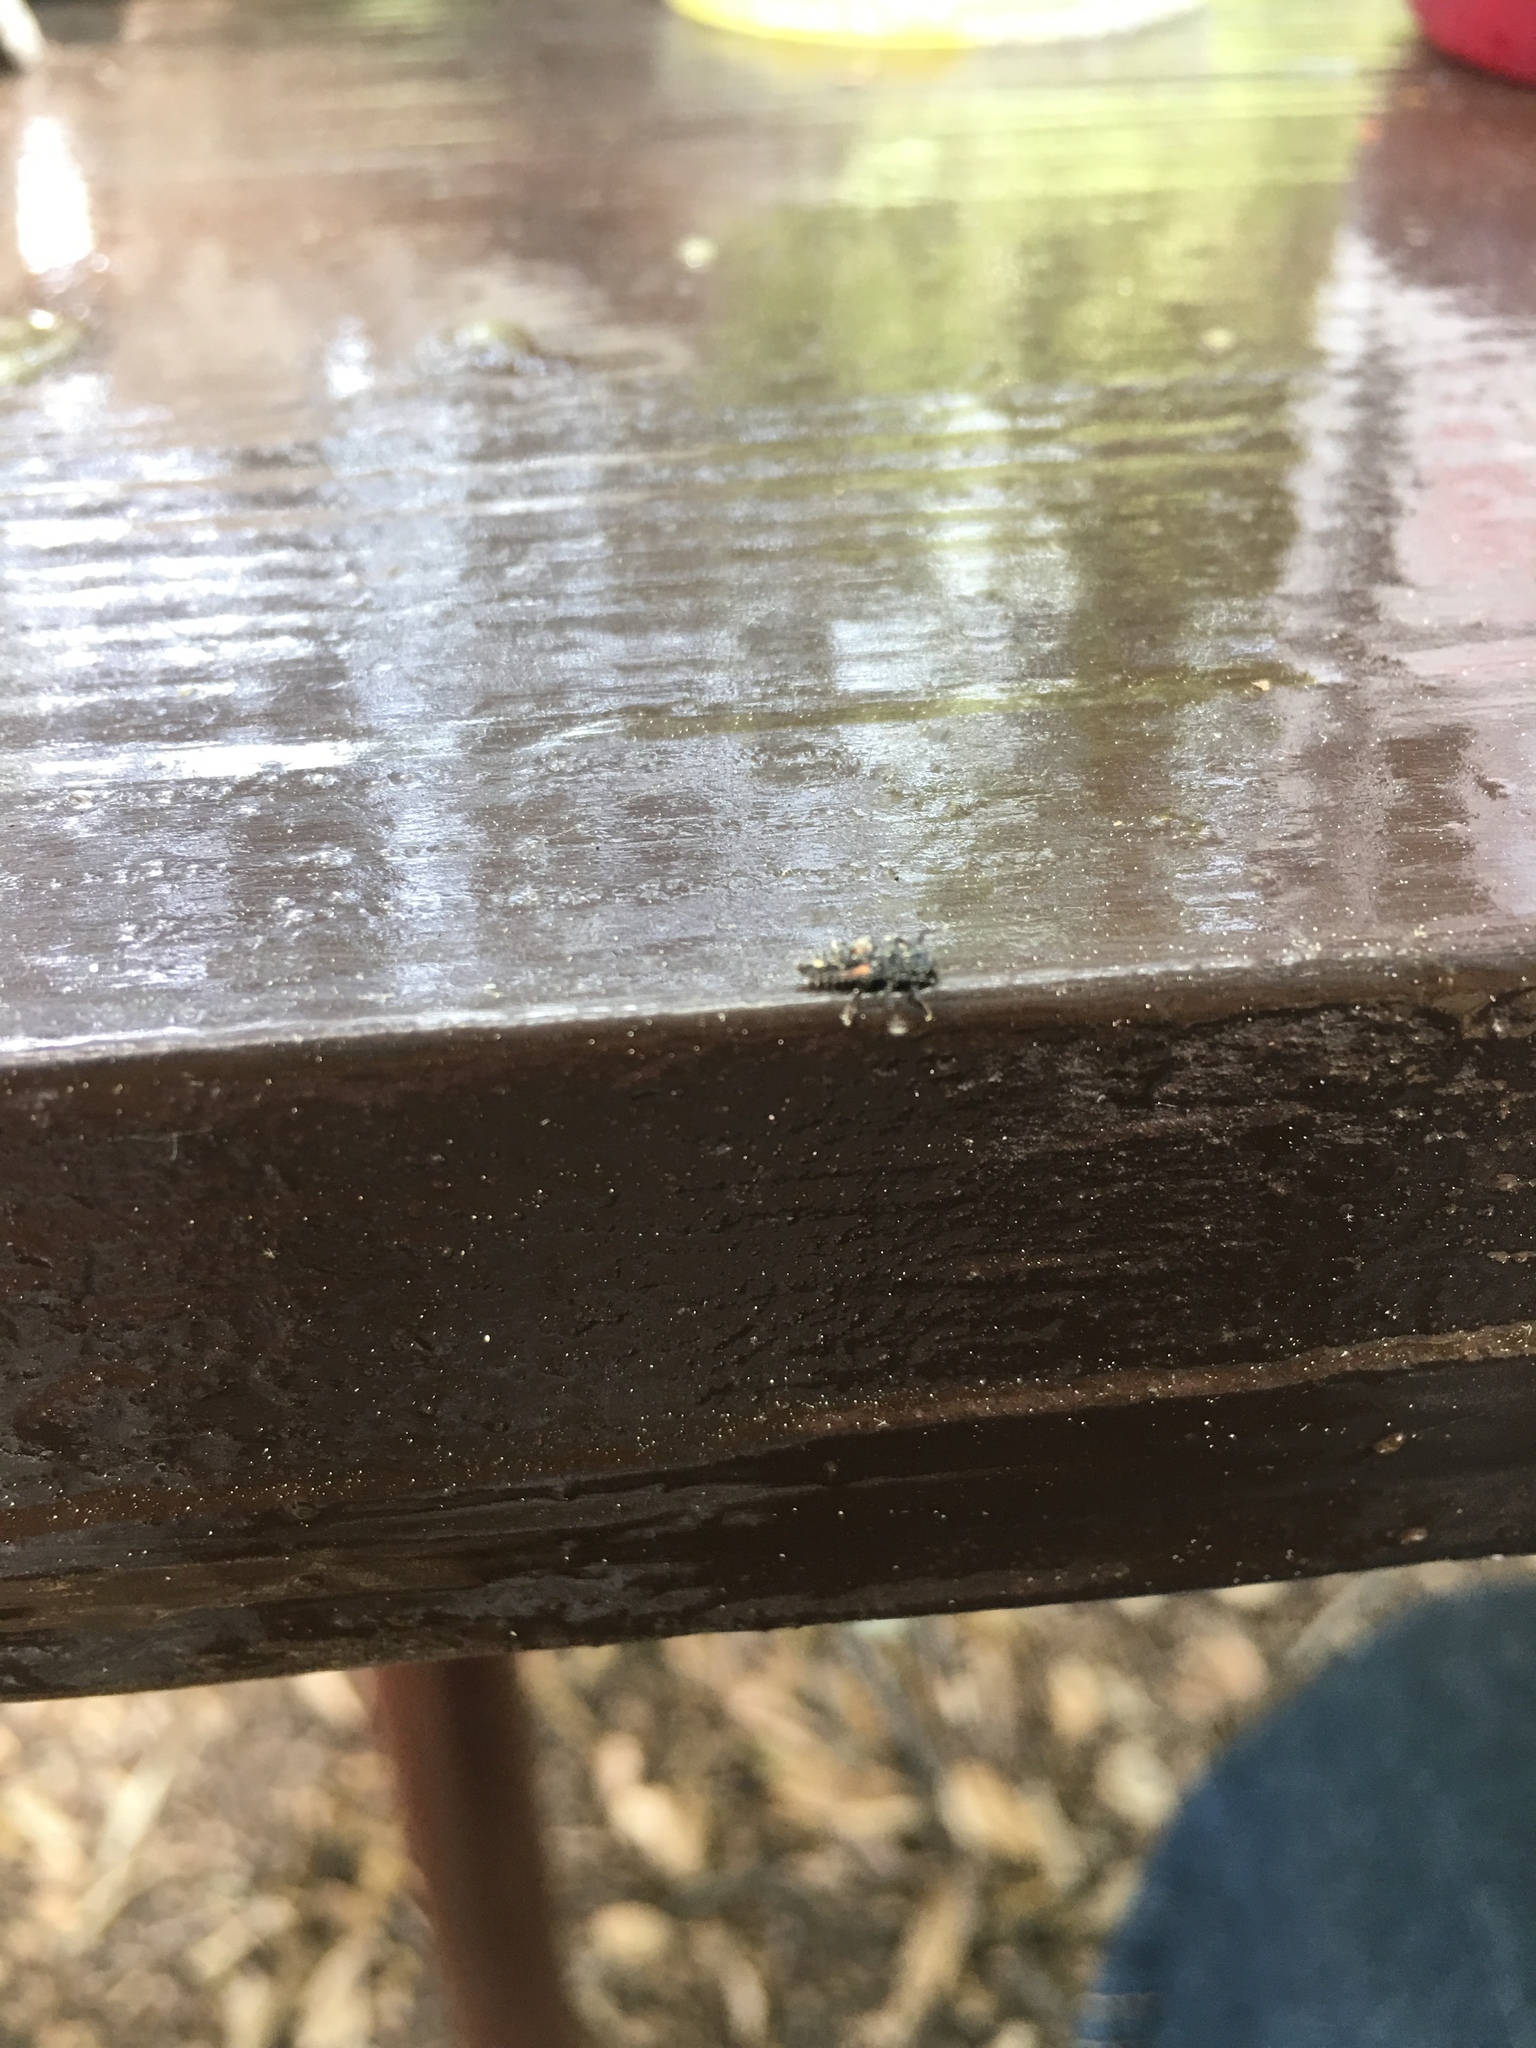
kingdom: Animalia
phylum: Arthropoda
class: Insecta
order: Coleoptera
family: Coccinellidae
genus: Harmonia
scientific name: Harmonia axyridis
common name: Harlequin ladybird
